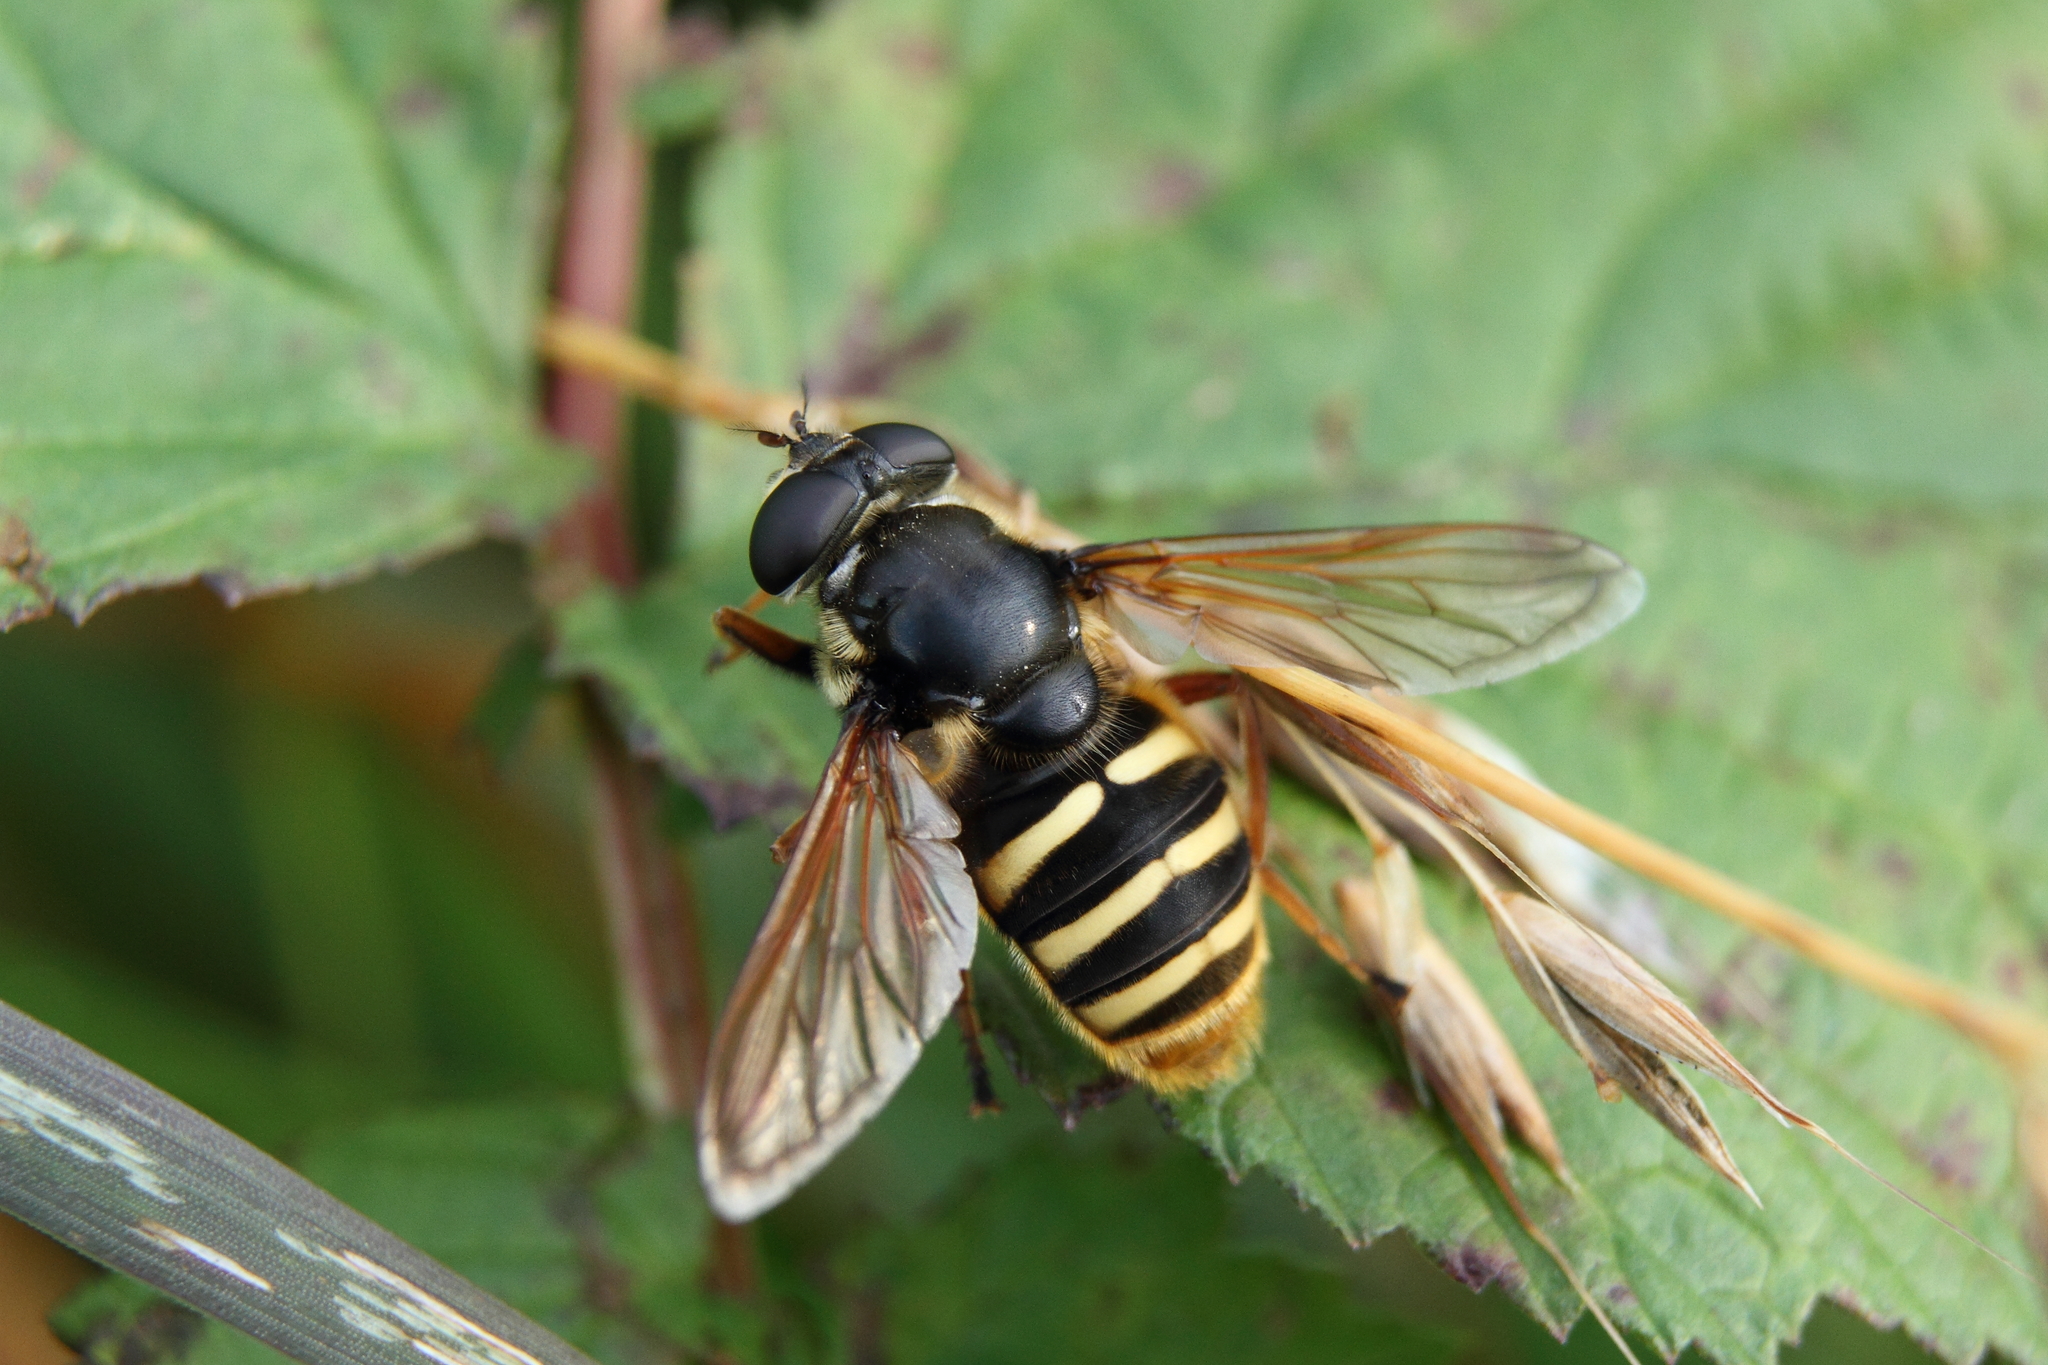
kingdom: Animalia
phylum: Arthropoda
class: Insecta
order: Diptera
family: Syrphidae
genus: Sericomyia
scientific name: Sericomyia silentis
